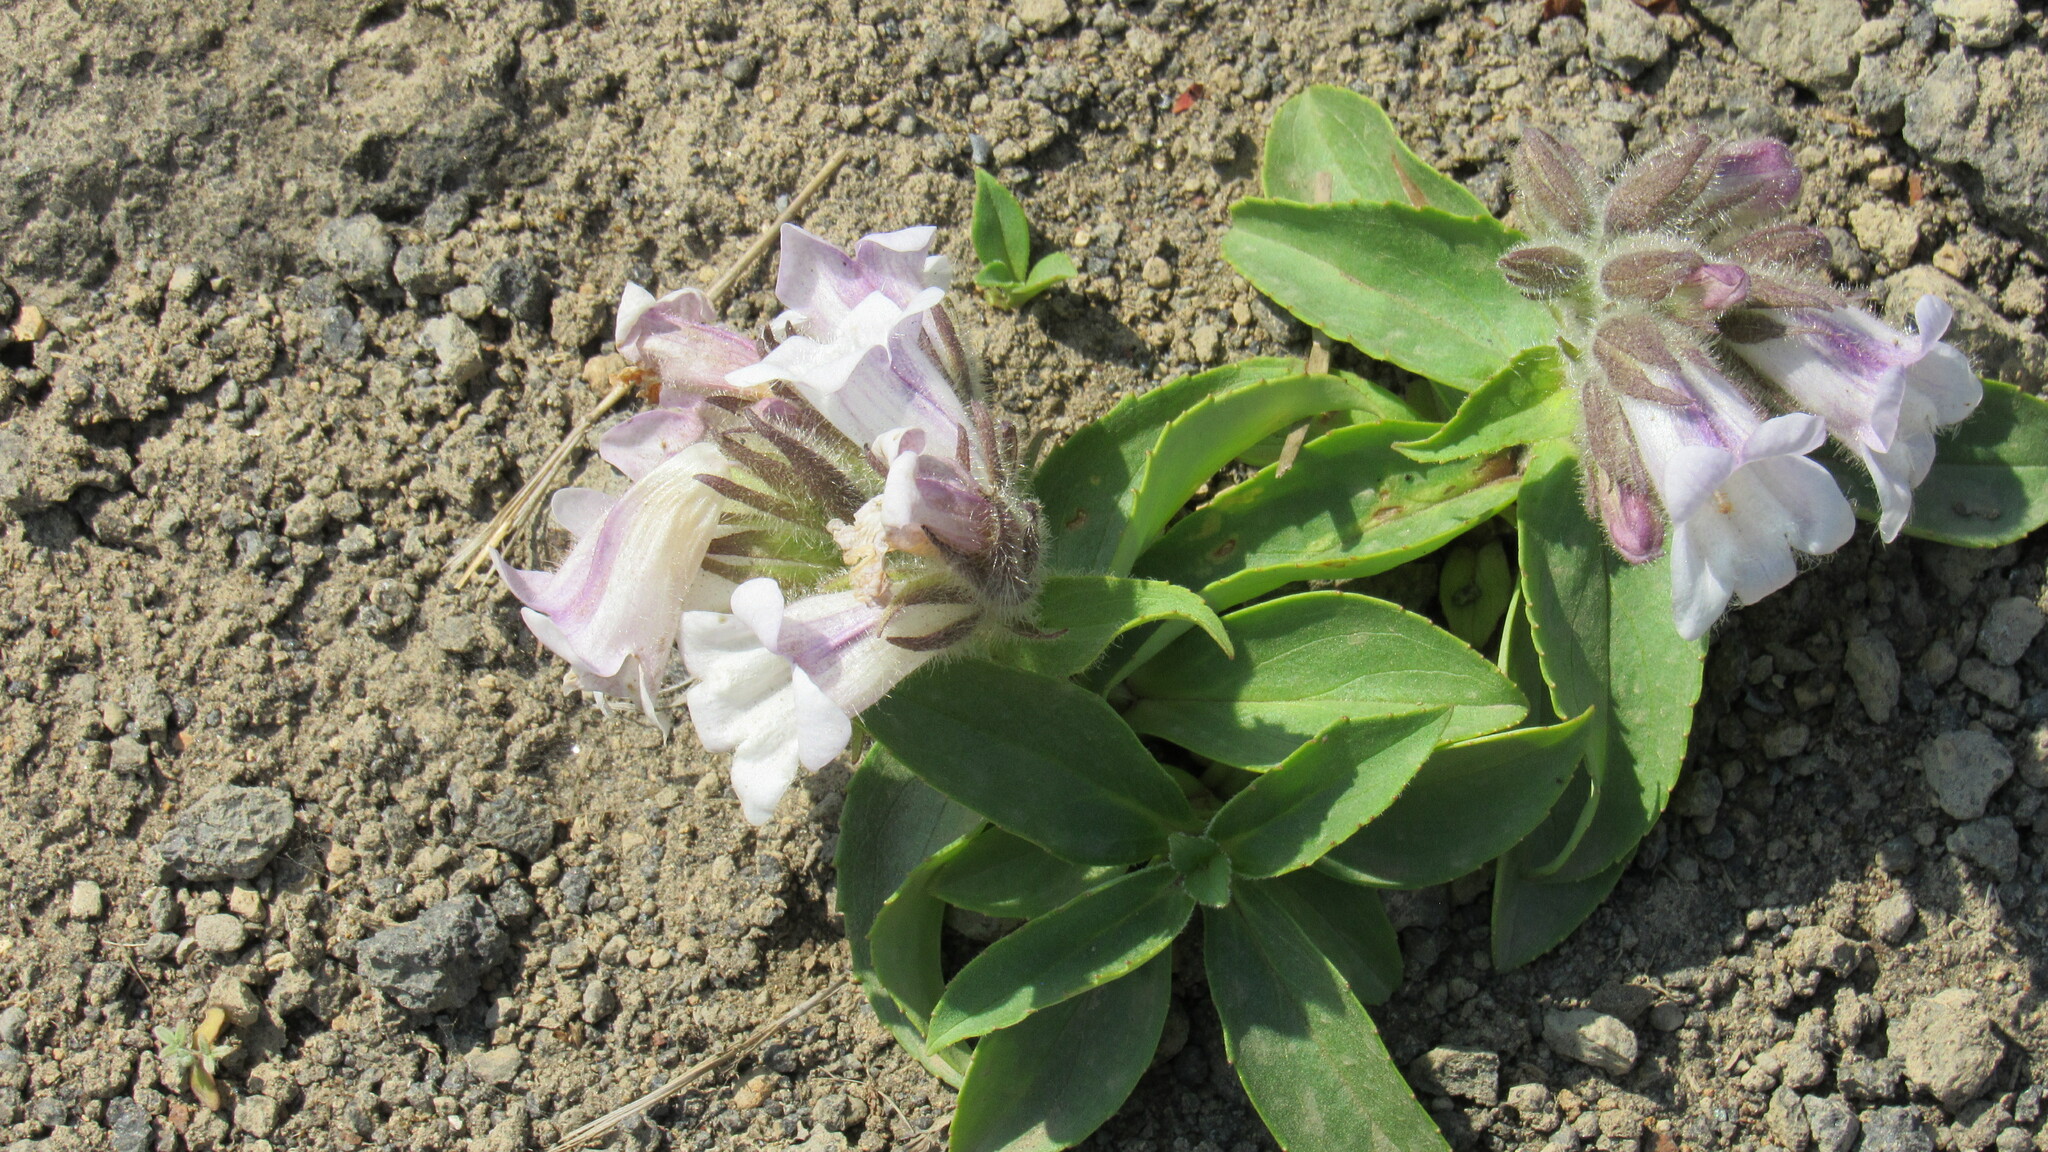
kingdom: Plantae
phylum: Tracheophyta
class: Magnoliopsida
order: Lamiales
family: Plantaginaceae
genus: Pennellianthus
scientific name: Pennellianthus frutescens
